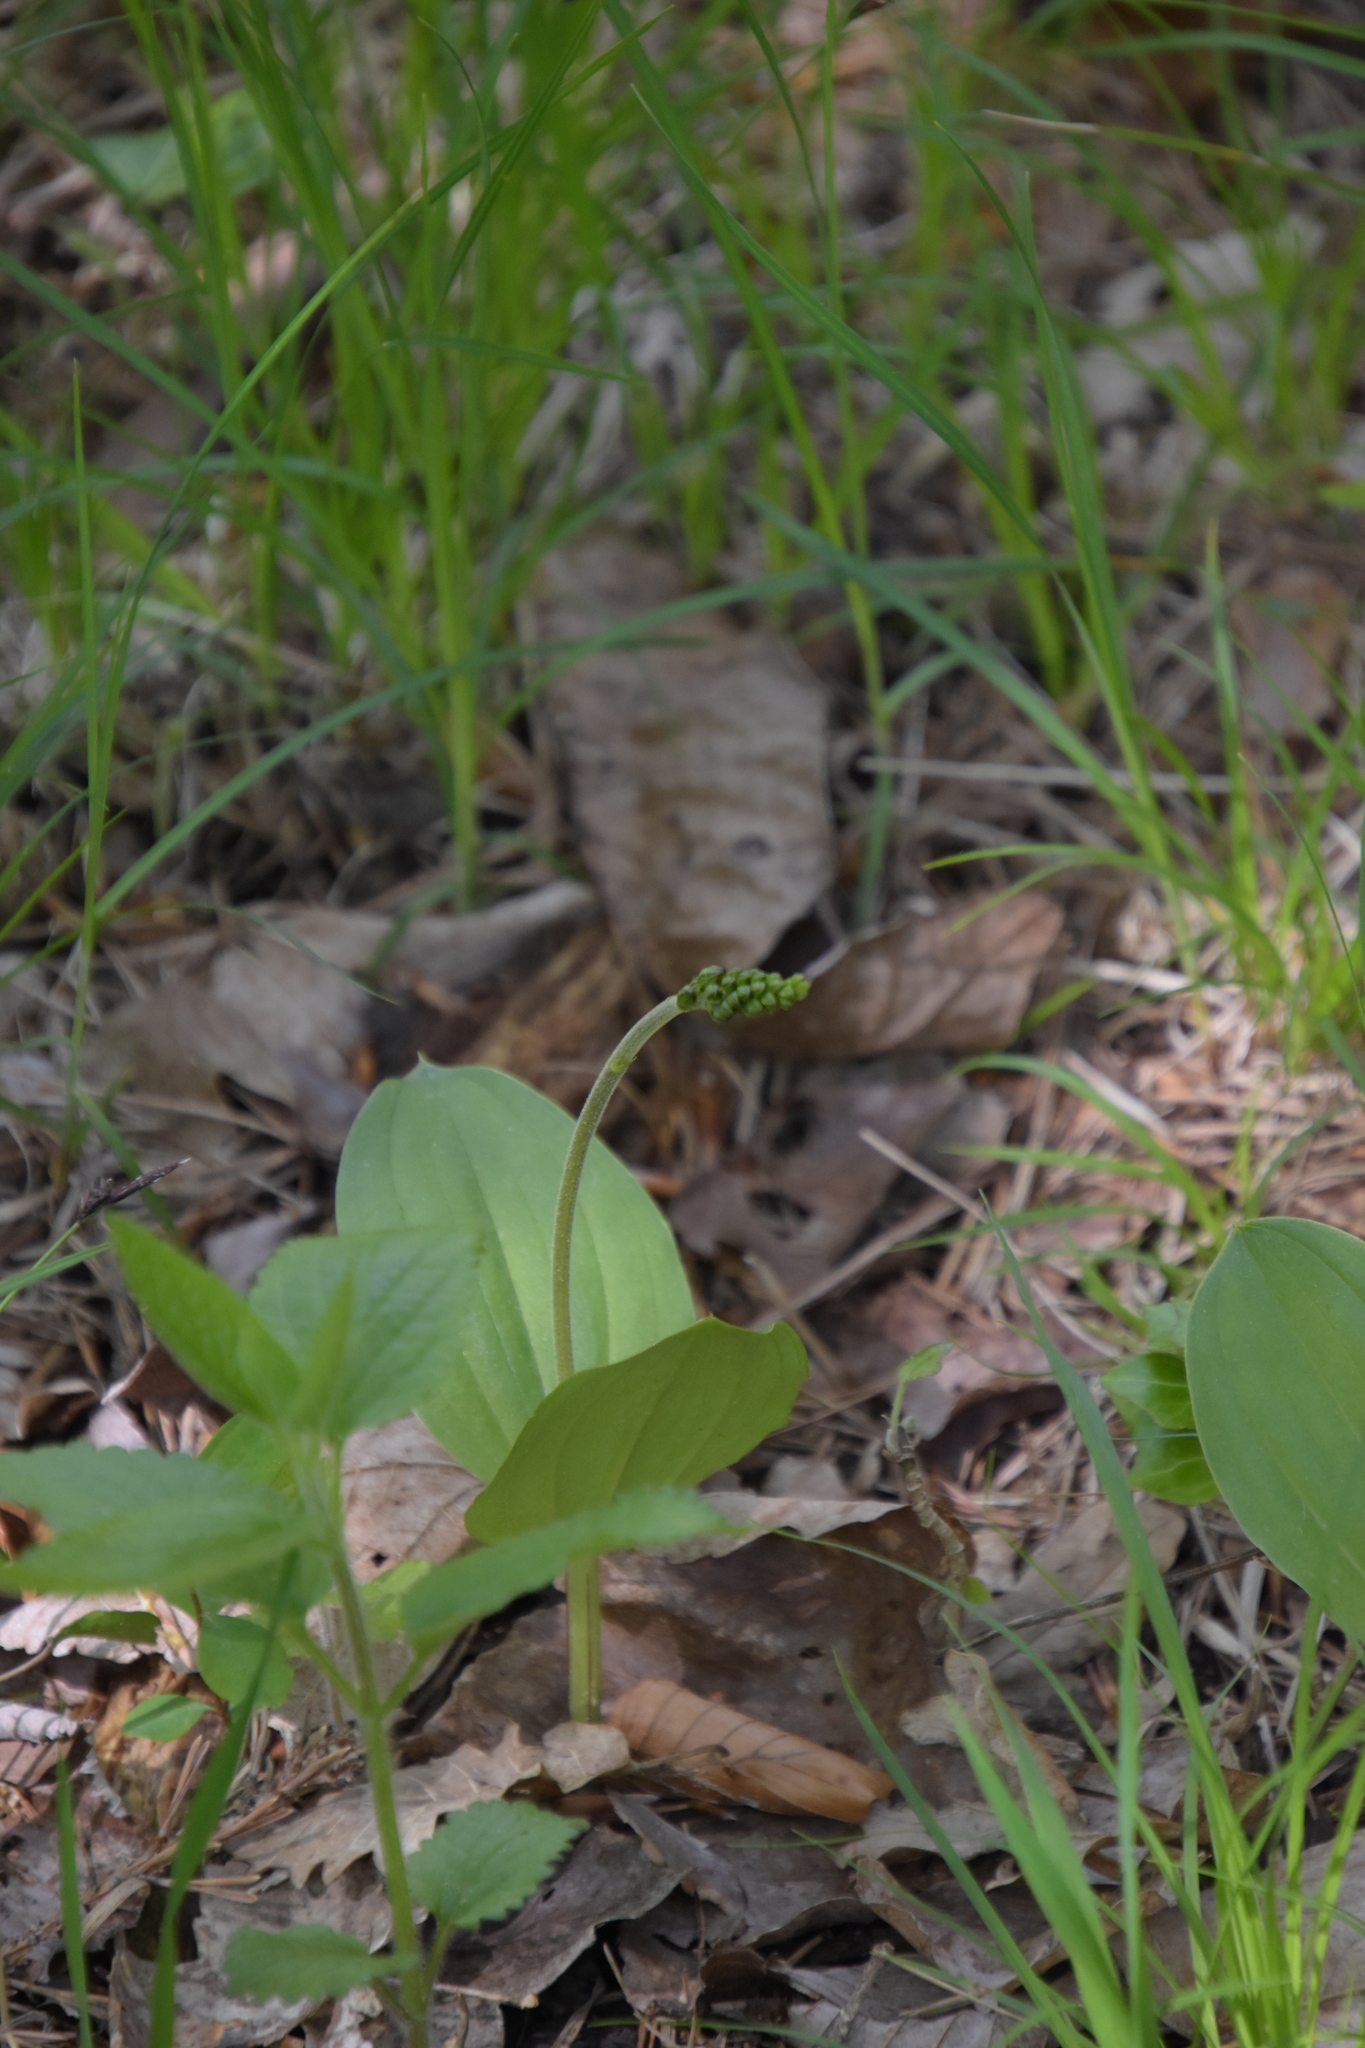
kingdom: Plantae
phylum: Tracheophyta
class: Liliopsida
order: Asparagales
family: Orchidaceae
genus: Neottia
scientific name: Neottia ovata
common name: Common twayblade
